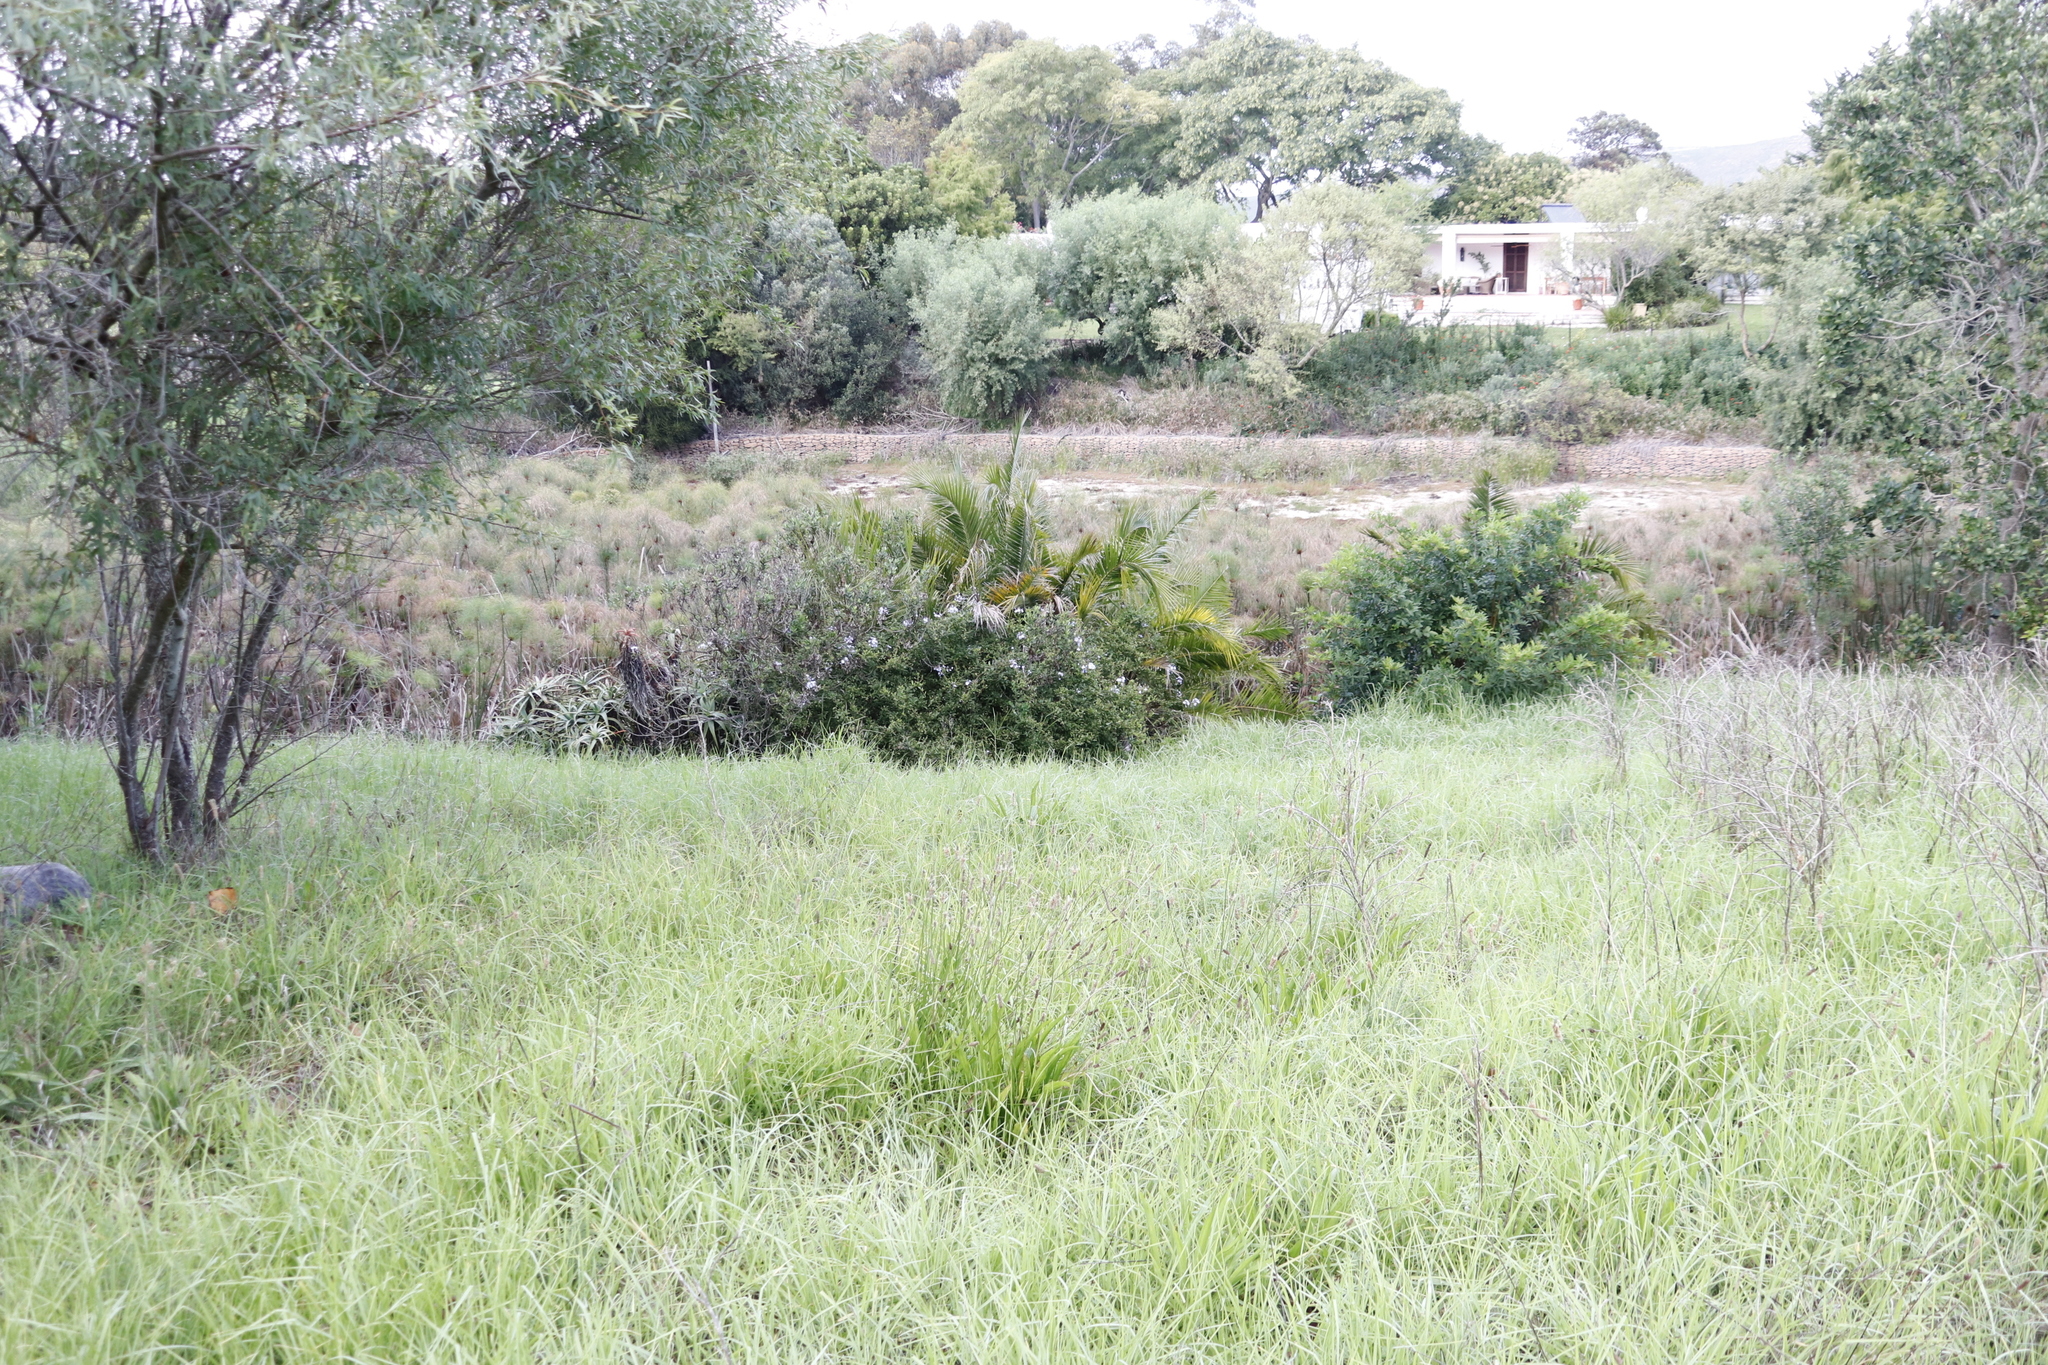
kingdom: Plantae
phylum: Tracheophyta
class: Magnoliopsida
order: Caryophyllales
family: Plumbaginaceae
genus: Plumbago
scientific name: Plumbago auriculata
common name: Cape leadwort
